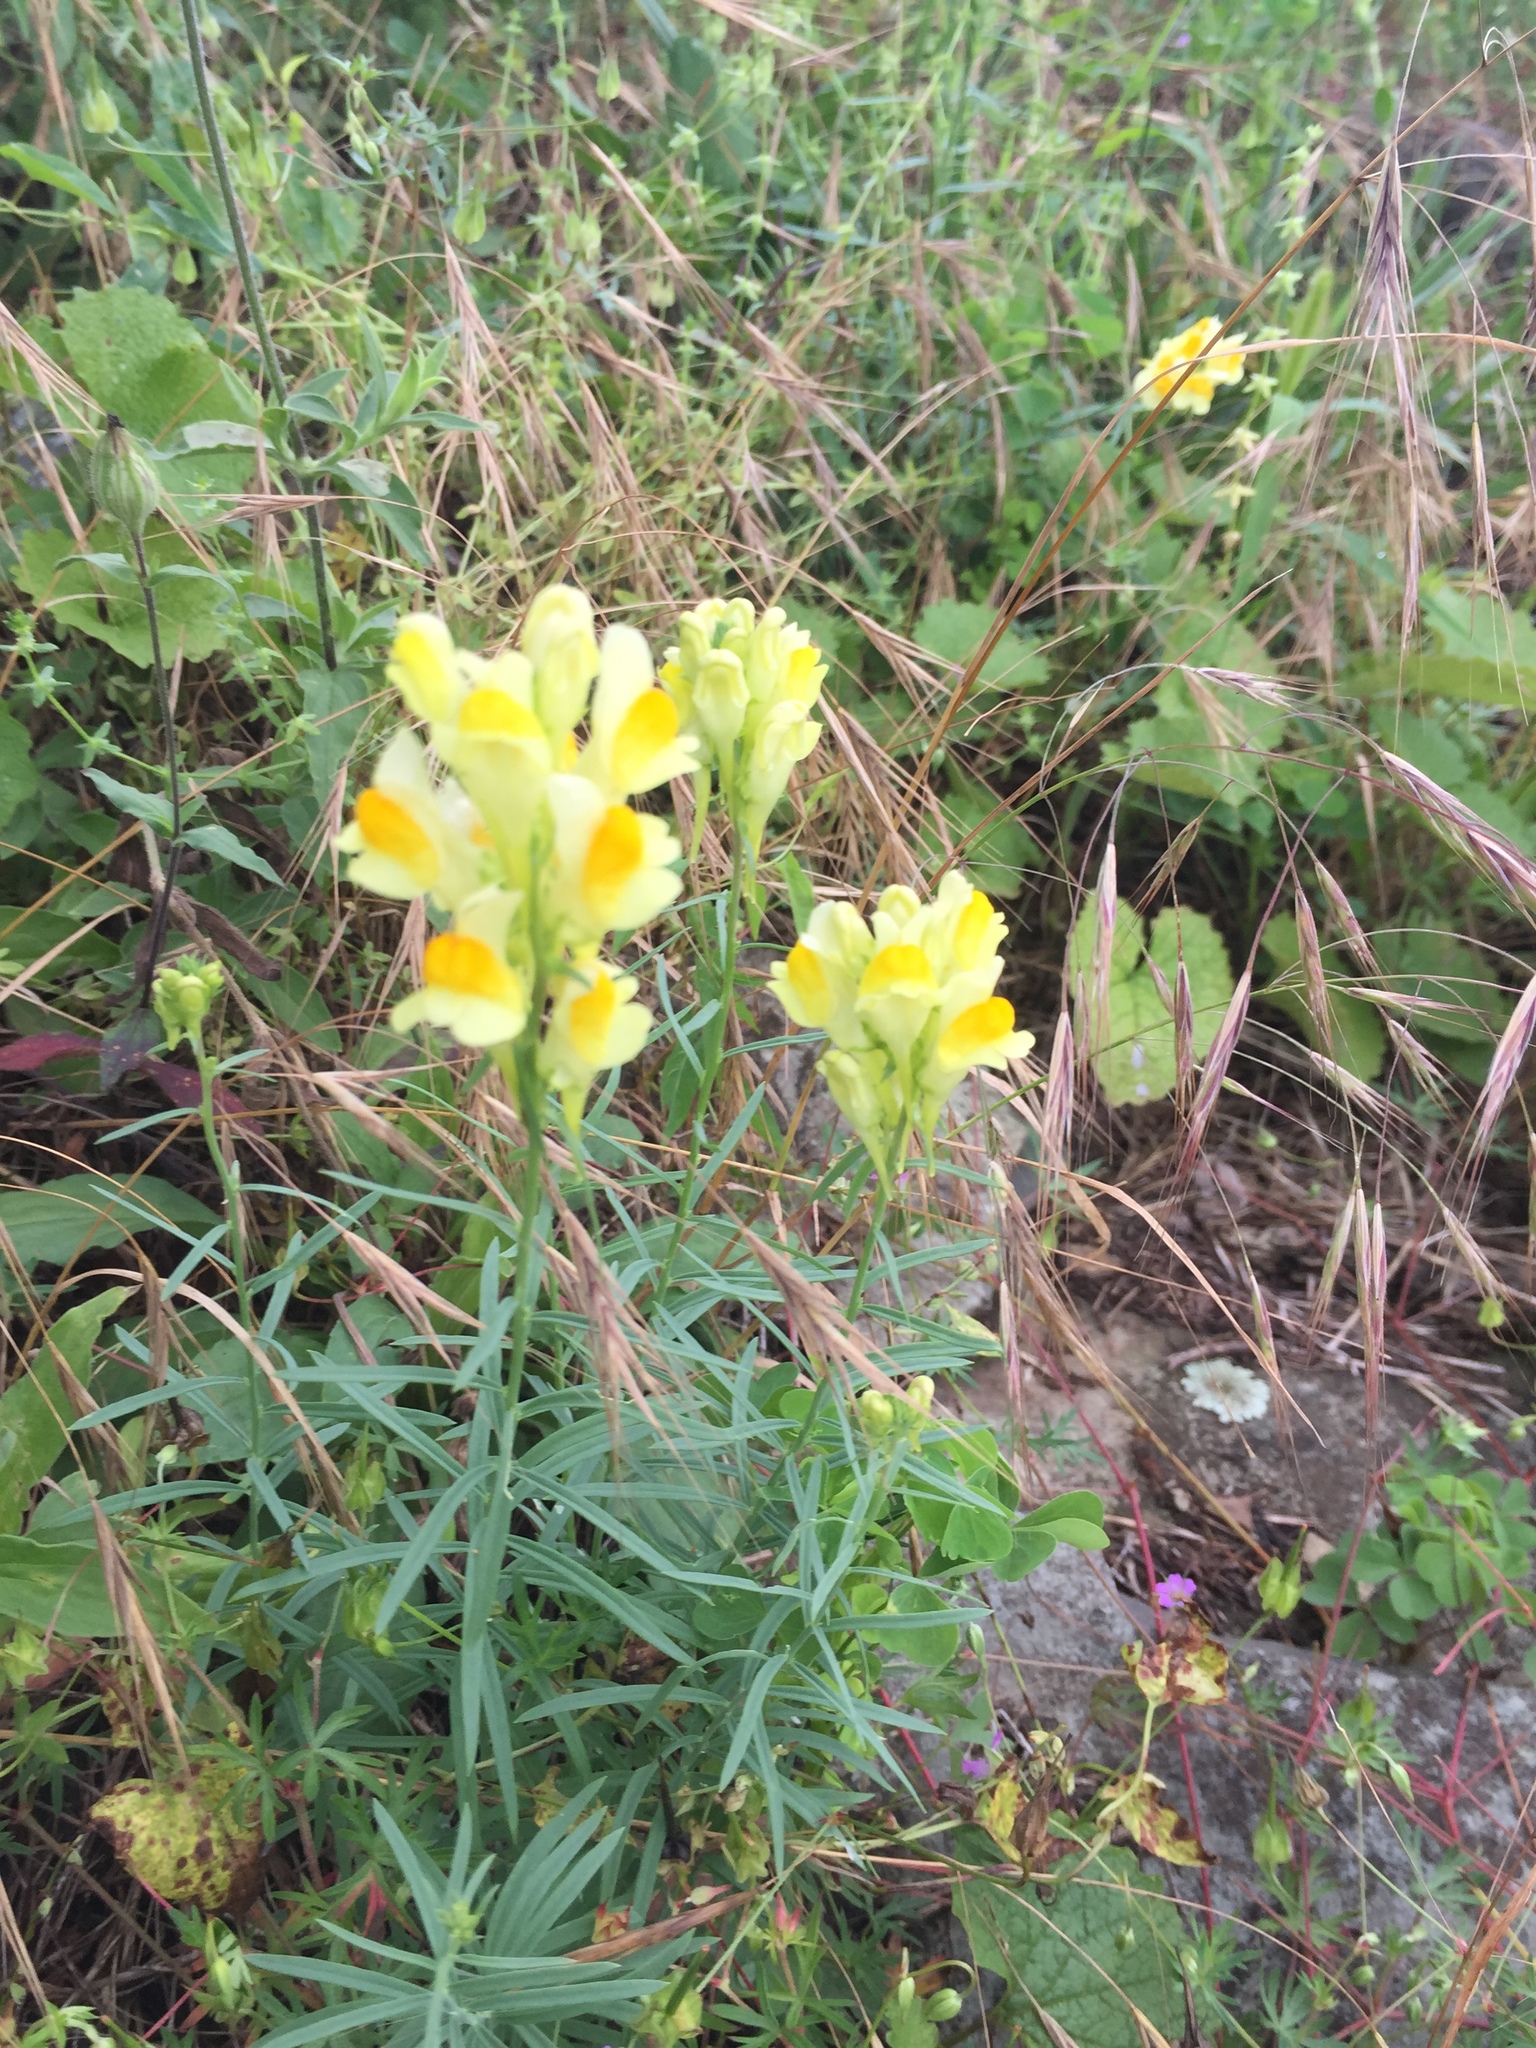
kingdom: Plantae
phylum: Tracheophyta
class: Magnoliopsida
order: Lamiales
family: Plantaginaceae
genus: Linaria
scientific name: Linaria vulgaris
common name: Butter and eggs
